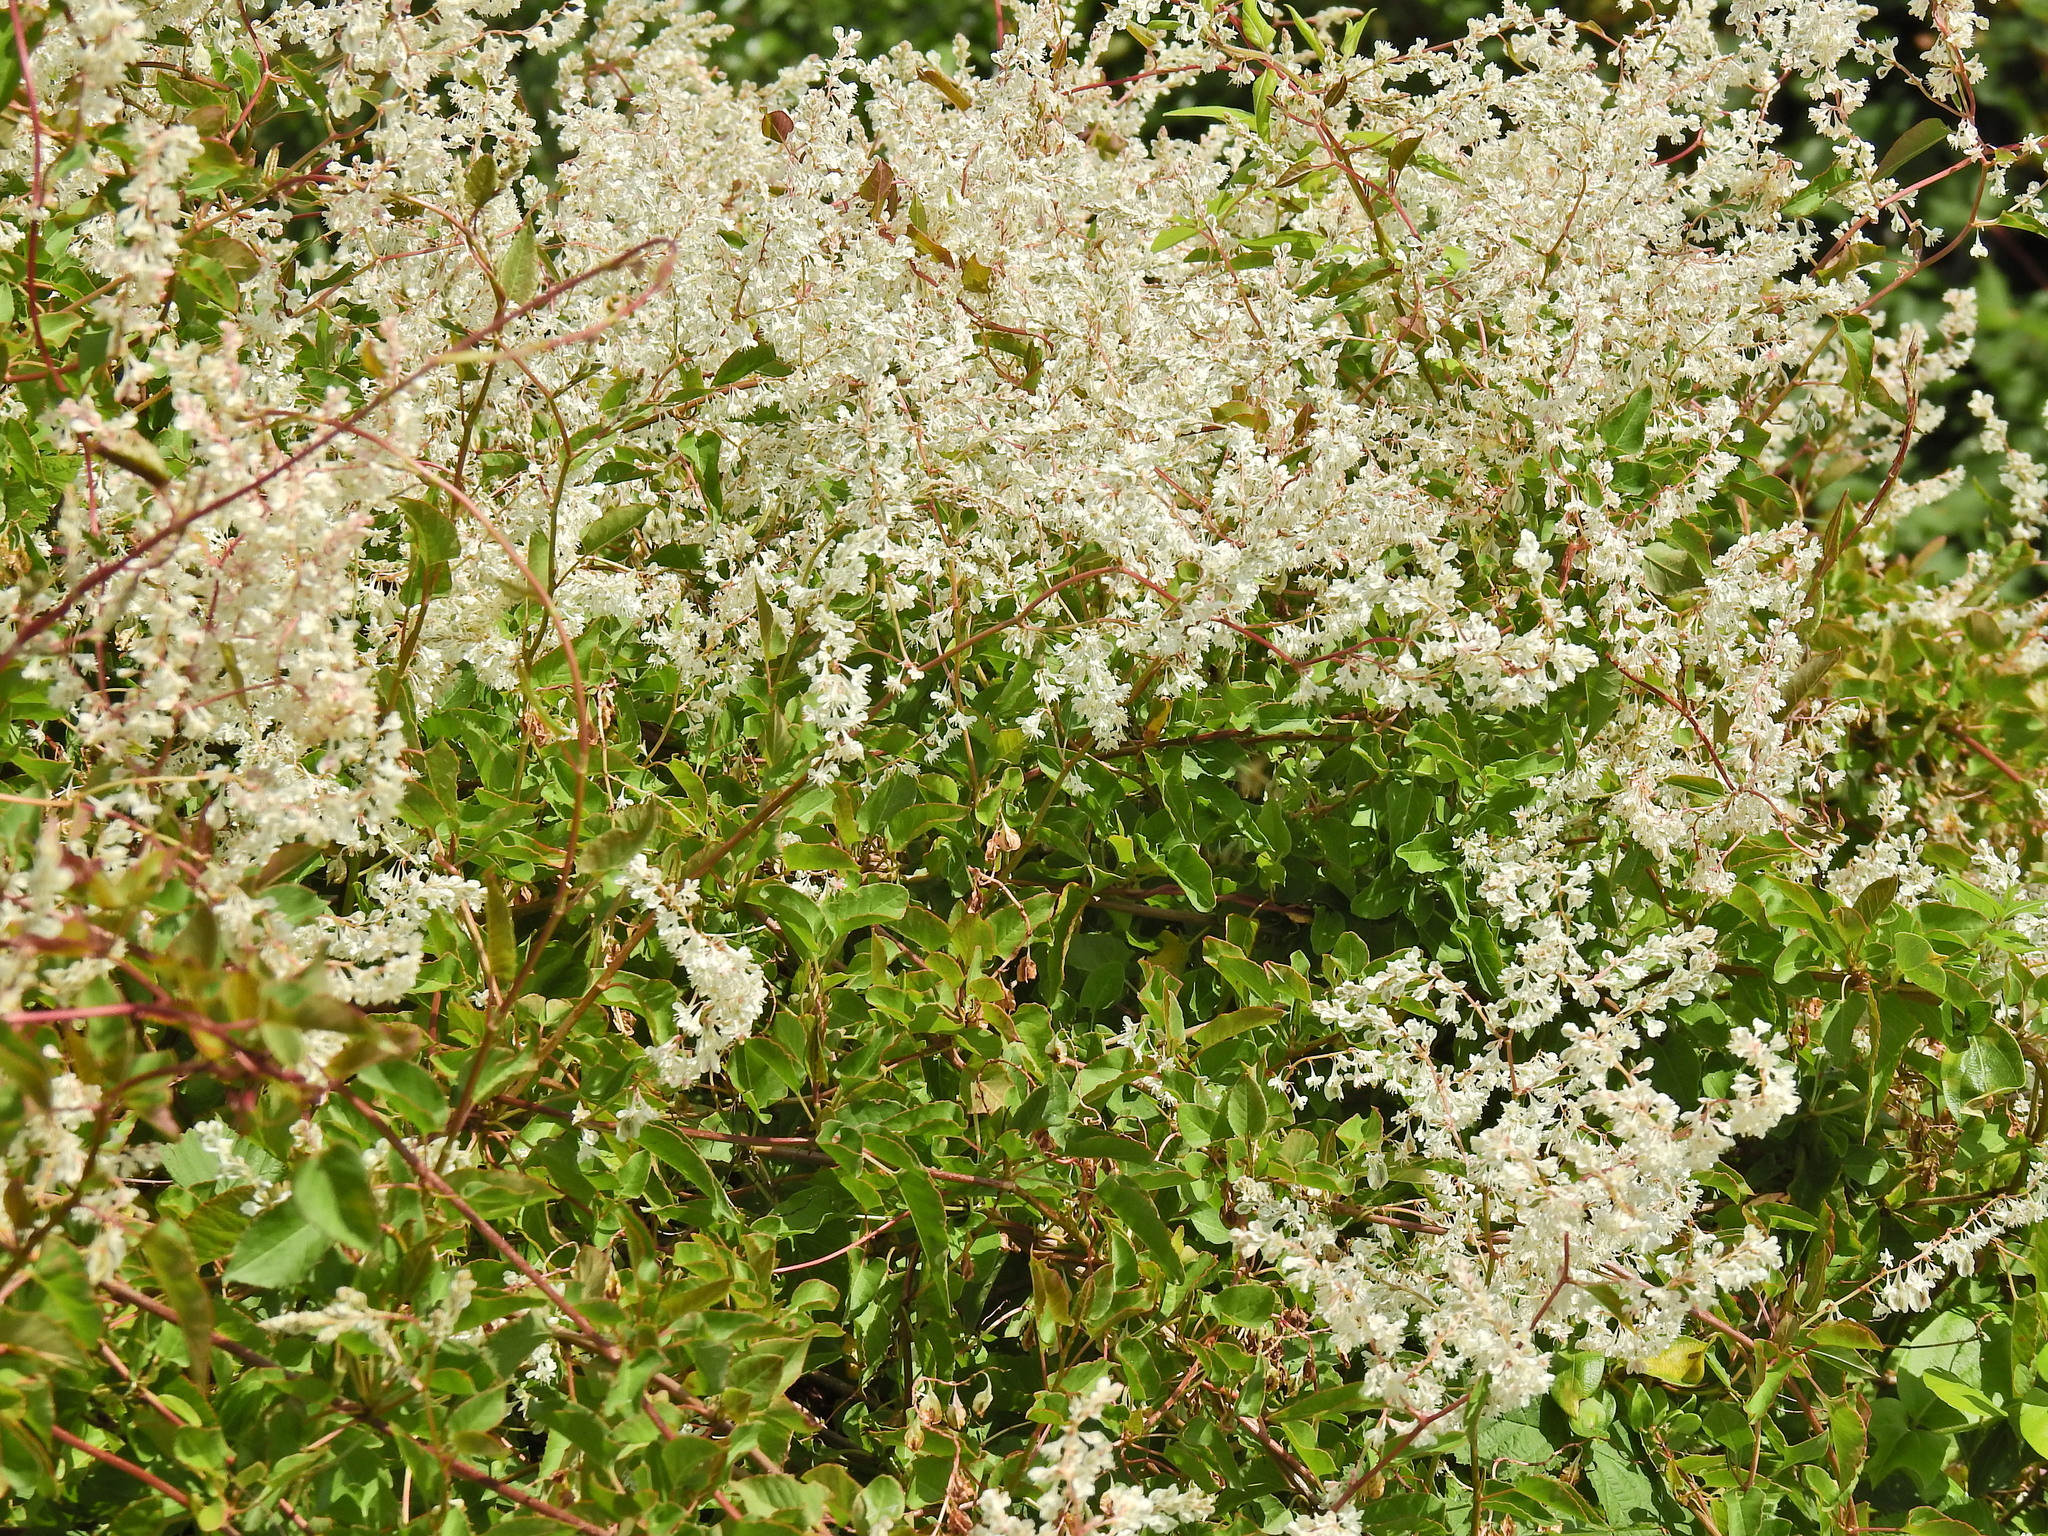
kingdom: Plantae
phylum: Tracheophyta
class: Magnoliopsida
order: Caryophyllales
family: Polygonaceae
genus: Fallopia
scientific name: Fallopia baldschuanica
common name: Russian-vine
